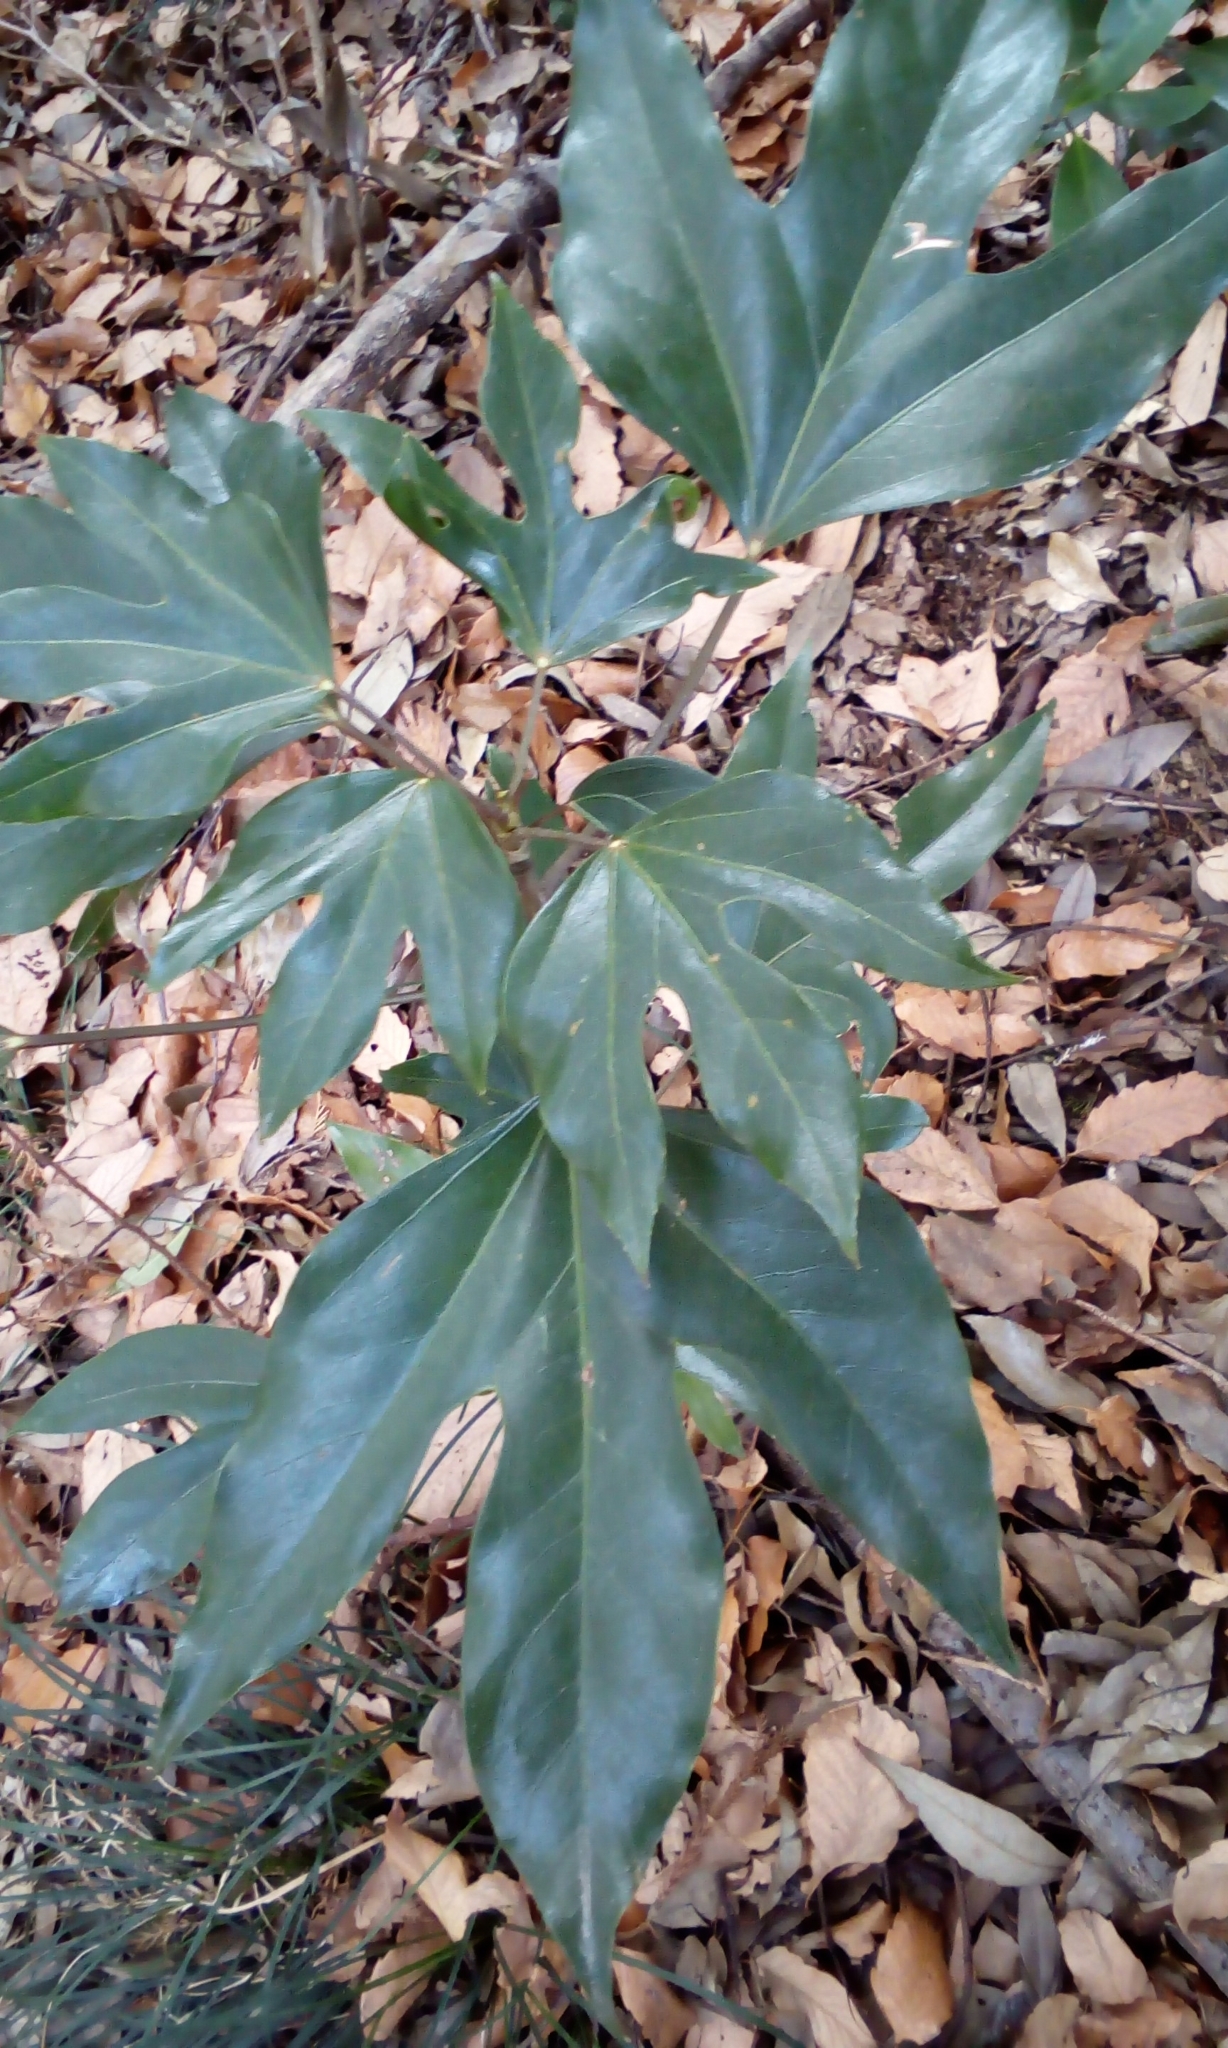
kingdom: Plantae
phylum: Tracheophyta
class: Magnoliopsida
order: Apiales
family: Araliaceae
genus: Dendropanax
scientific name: Dendropanax trifidus
